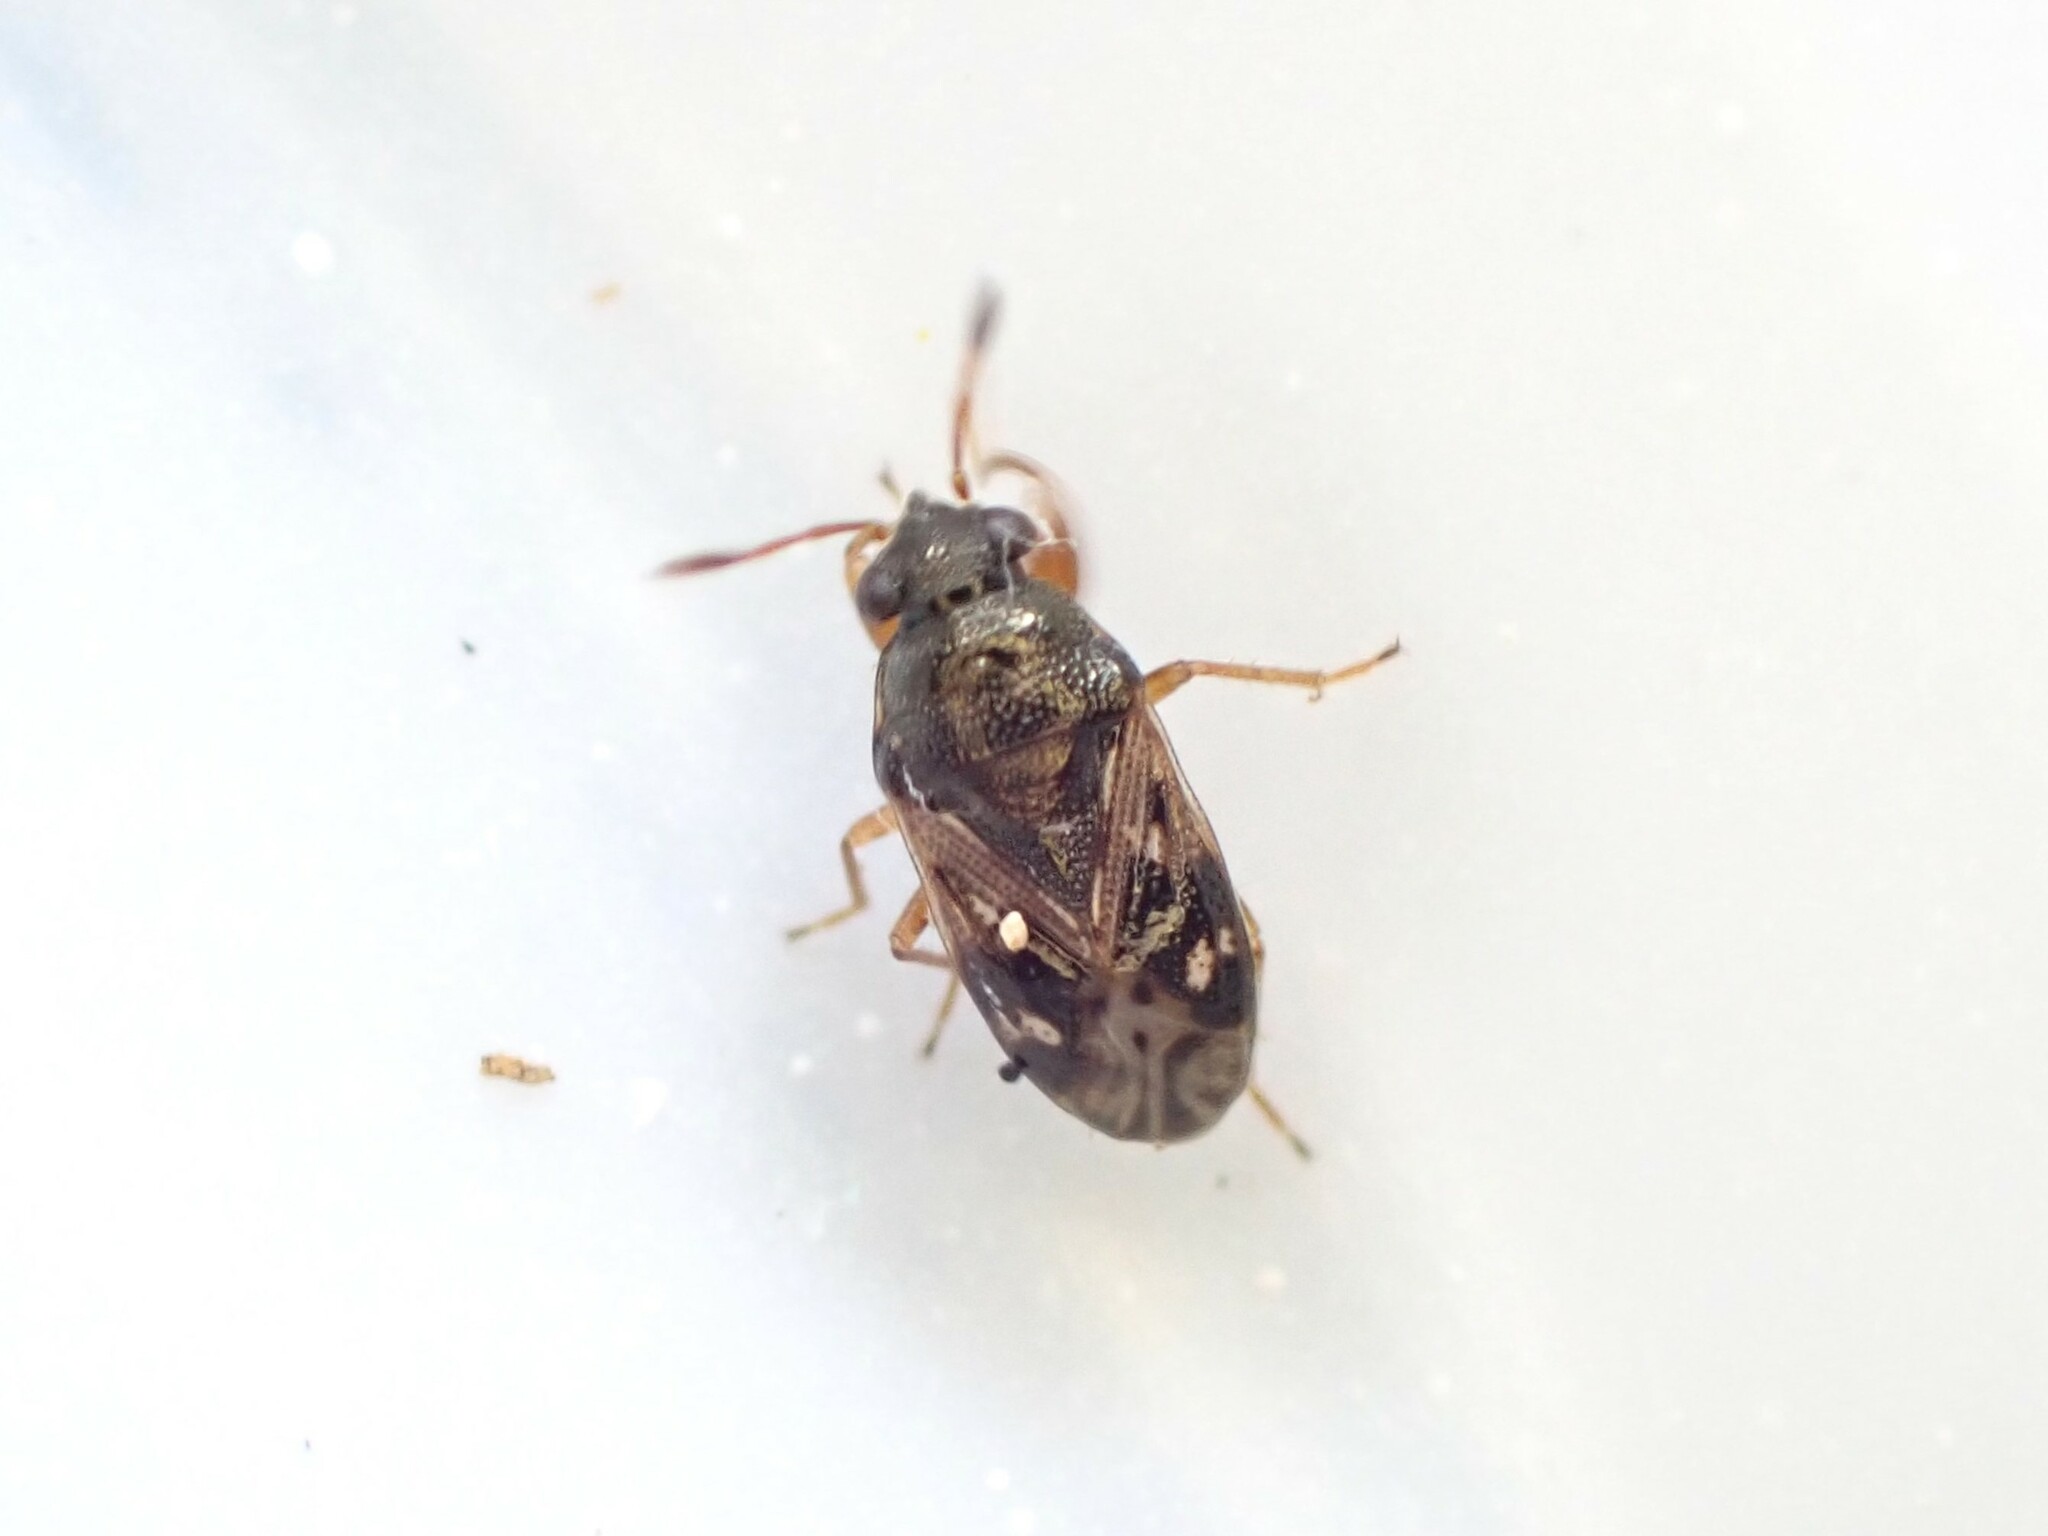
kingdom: Animalia
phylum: Arthropoda
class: Insecta
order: Hemiptera
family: Rhyparochromidae
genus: Stizocephalus
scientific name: Stizocephalus brevirostris
